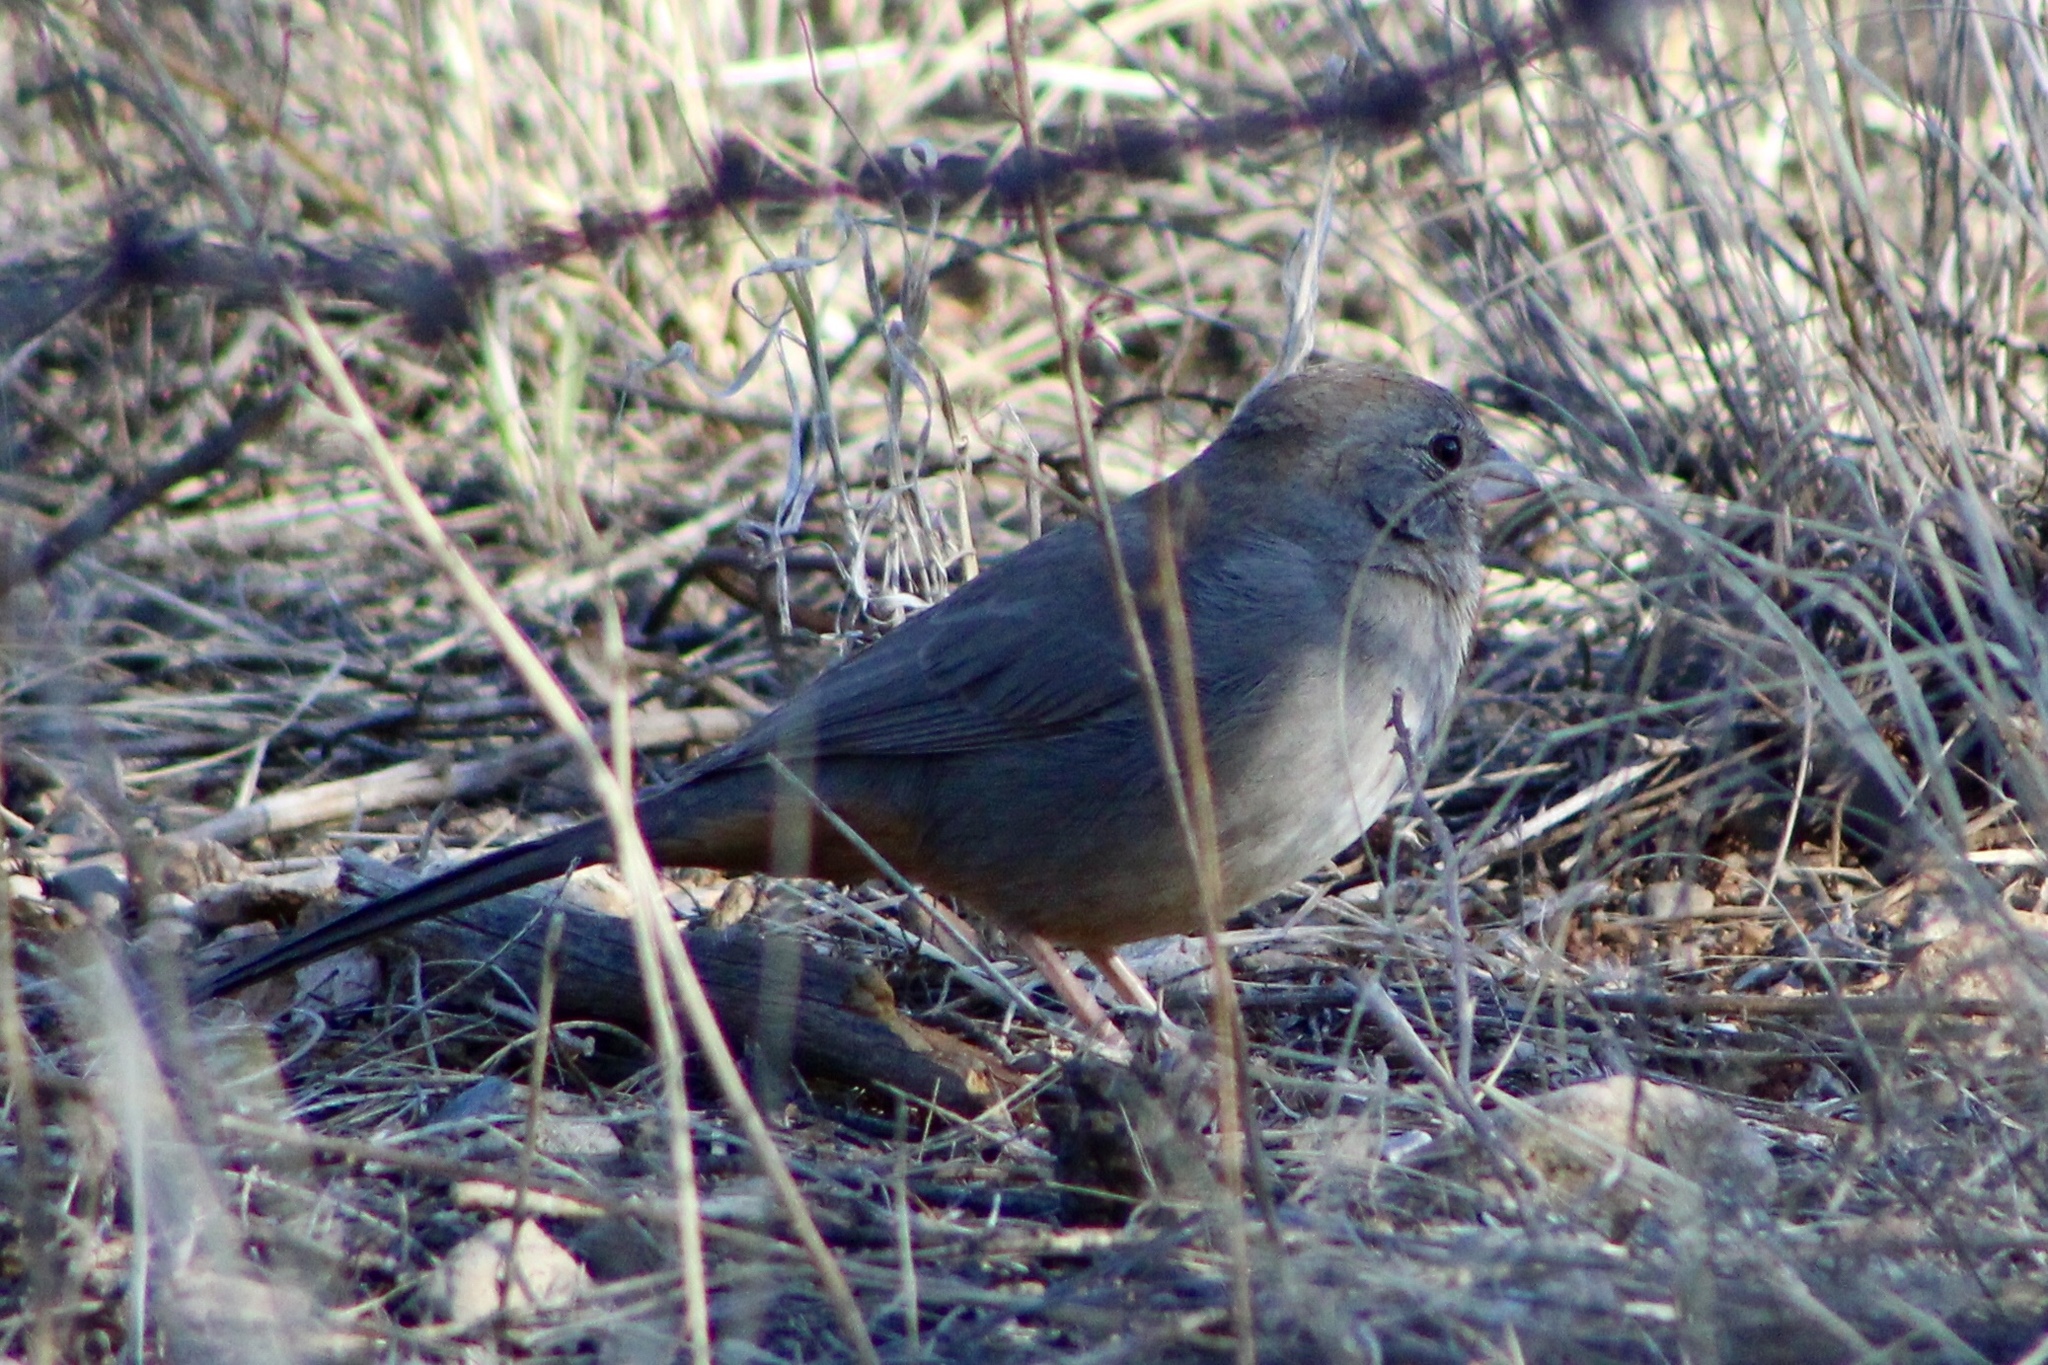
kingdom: Animalia
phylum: Chordata
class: Aves
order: Passeriformes
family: Passerellidae
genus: Melozone
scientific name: Melozone fusca
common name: Canyon towhee
